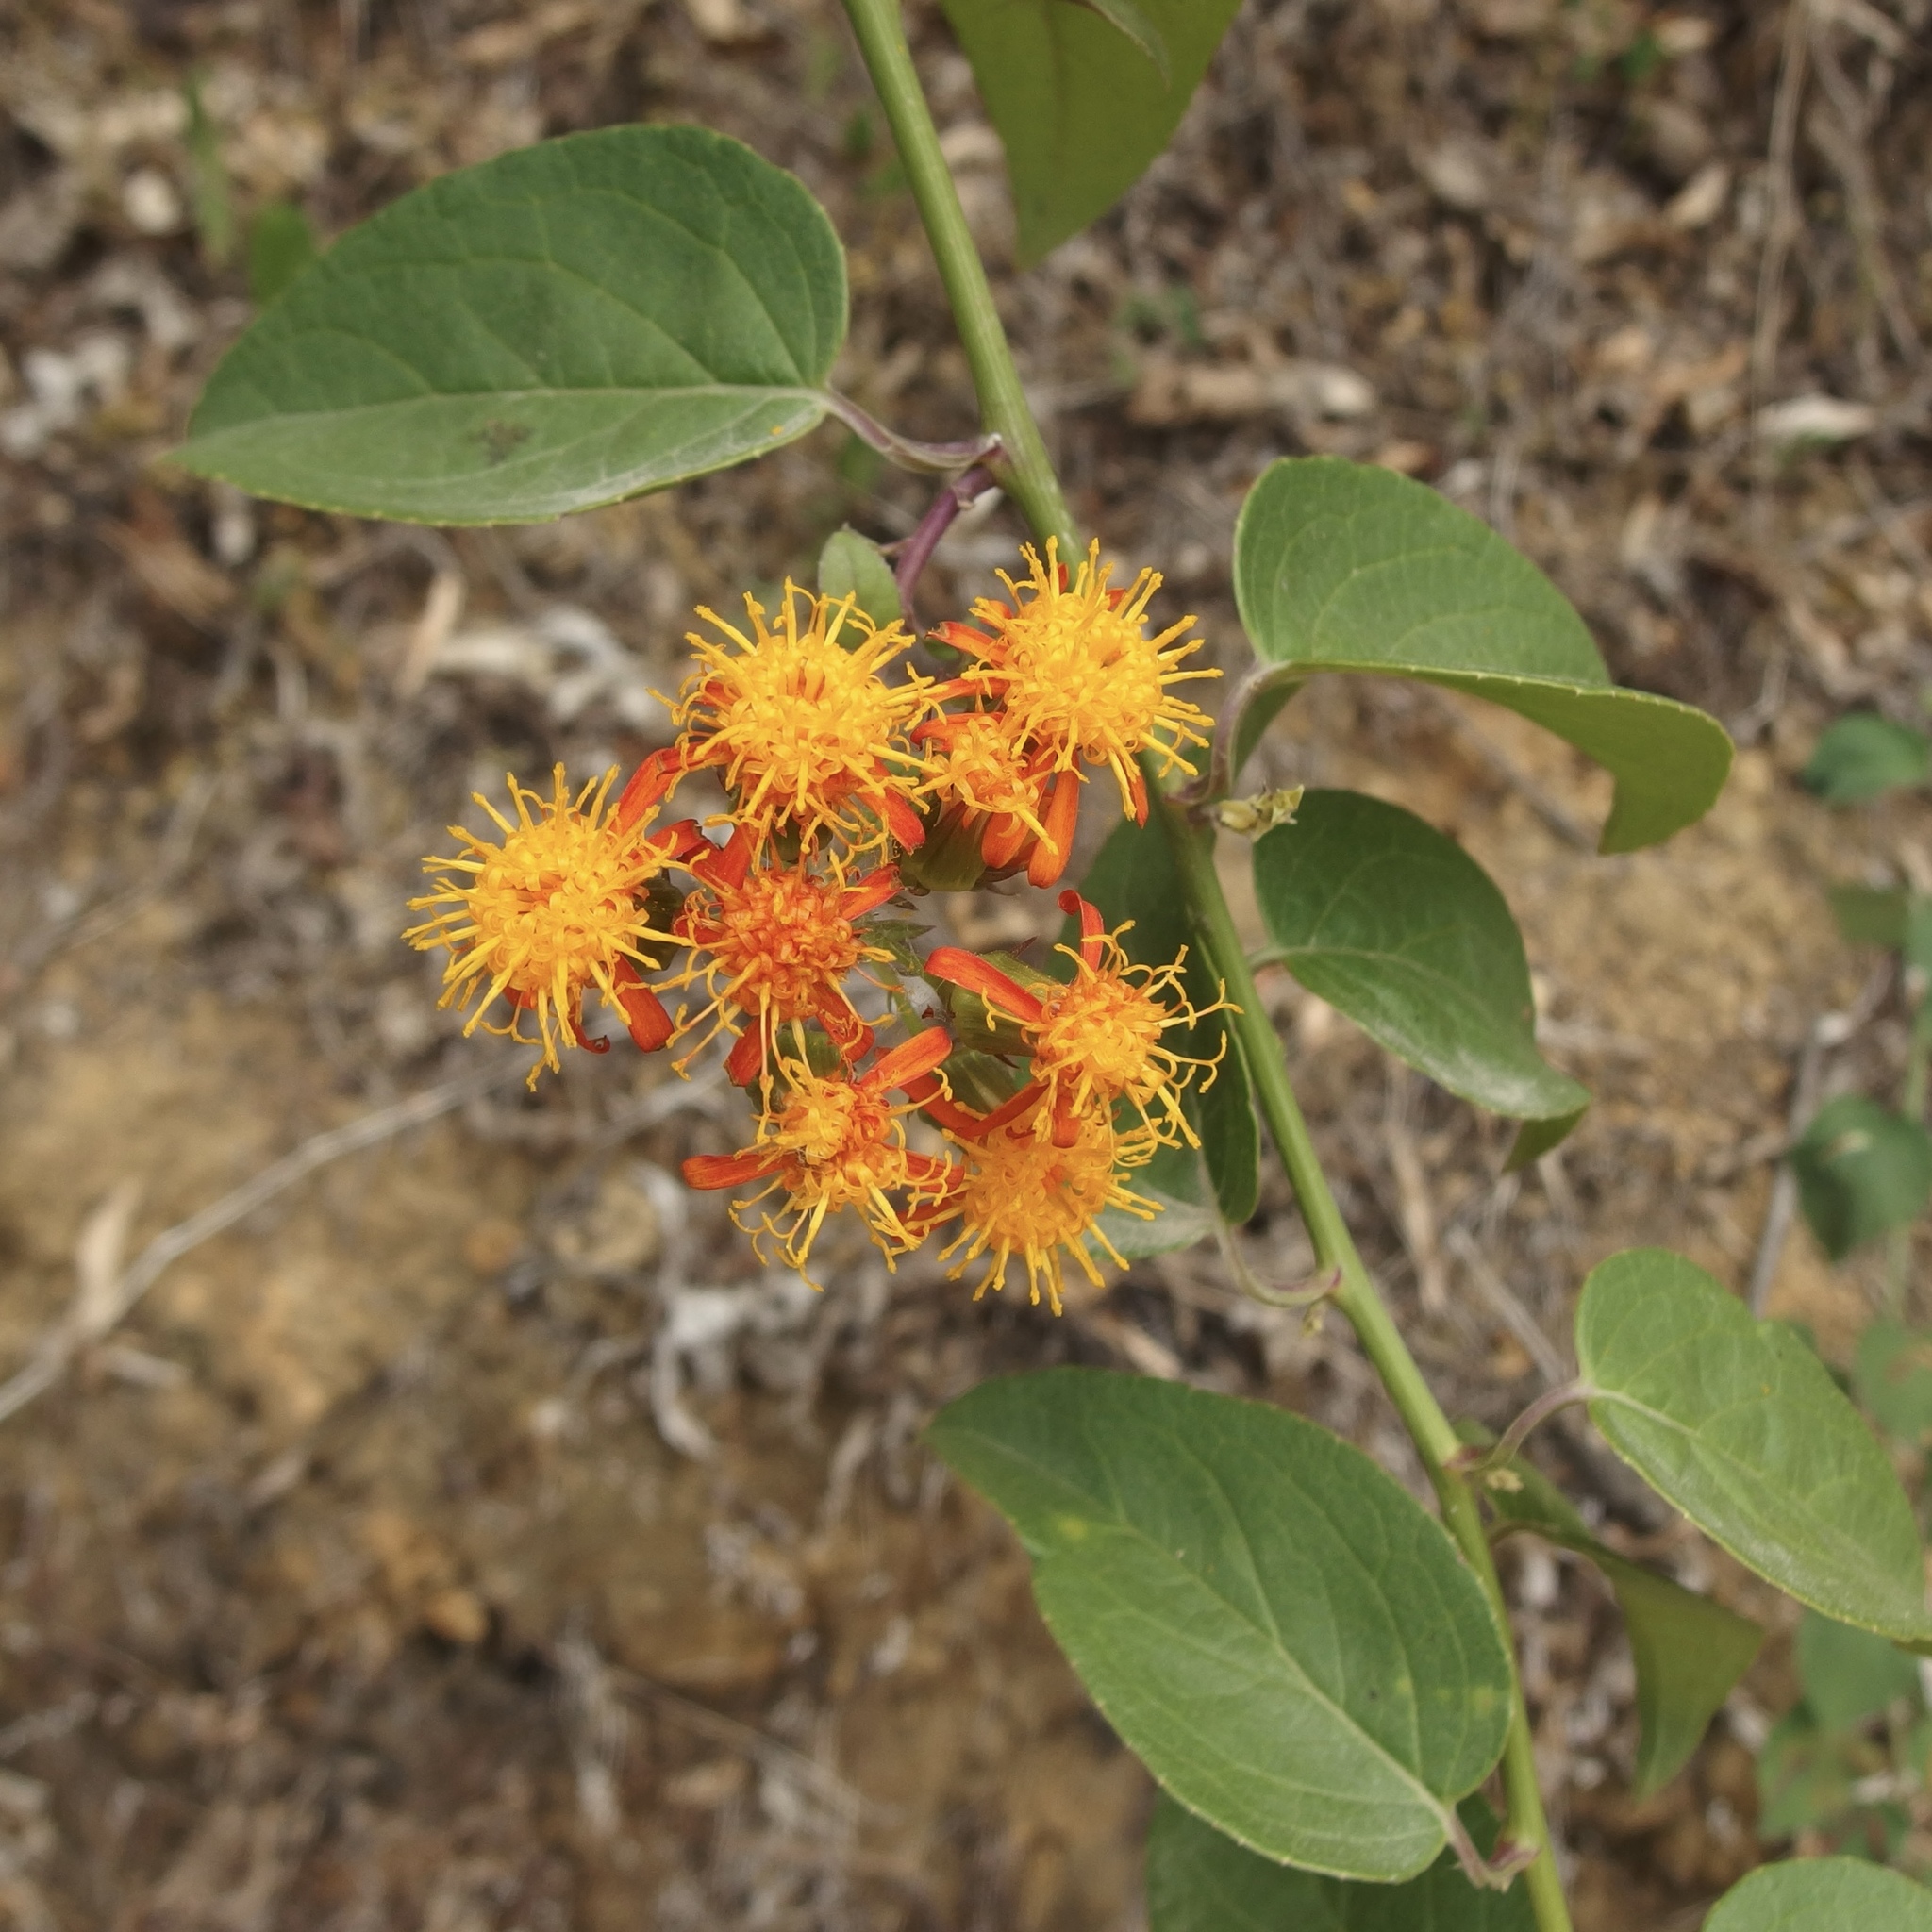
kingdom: Plantae
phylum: Tracheophyta
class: Magnoliopsida
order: Asterales
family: Asteraceae
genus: Pseudogynoxys
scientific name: Pseudogynoxys scabra
